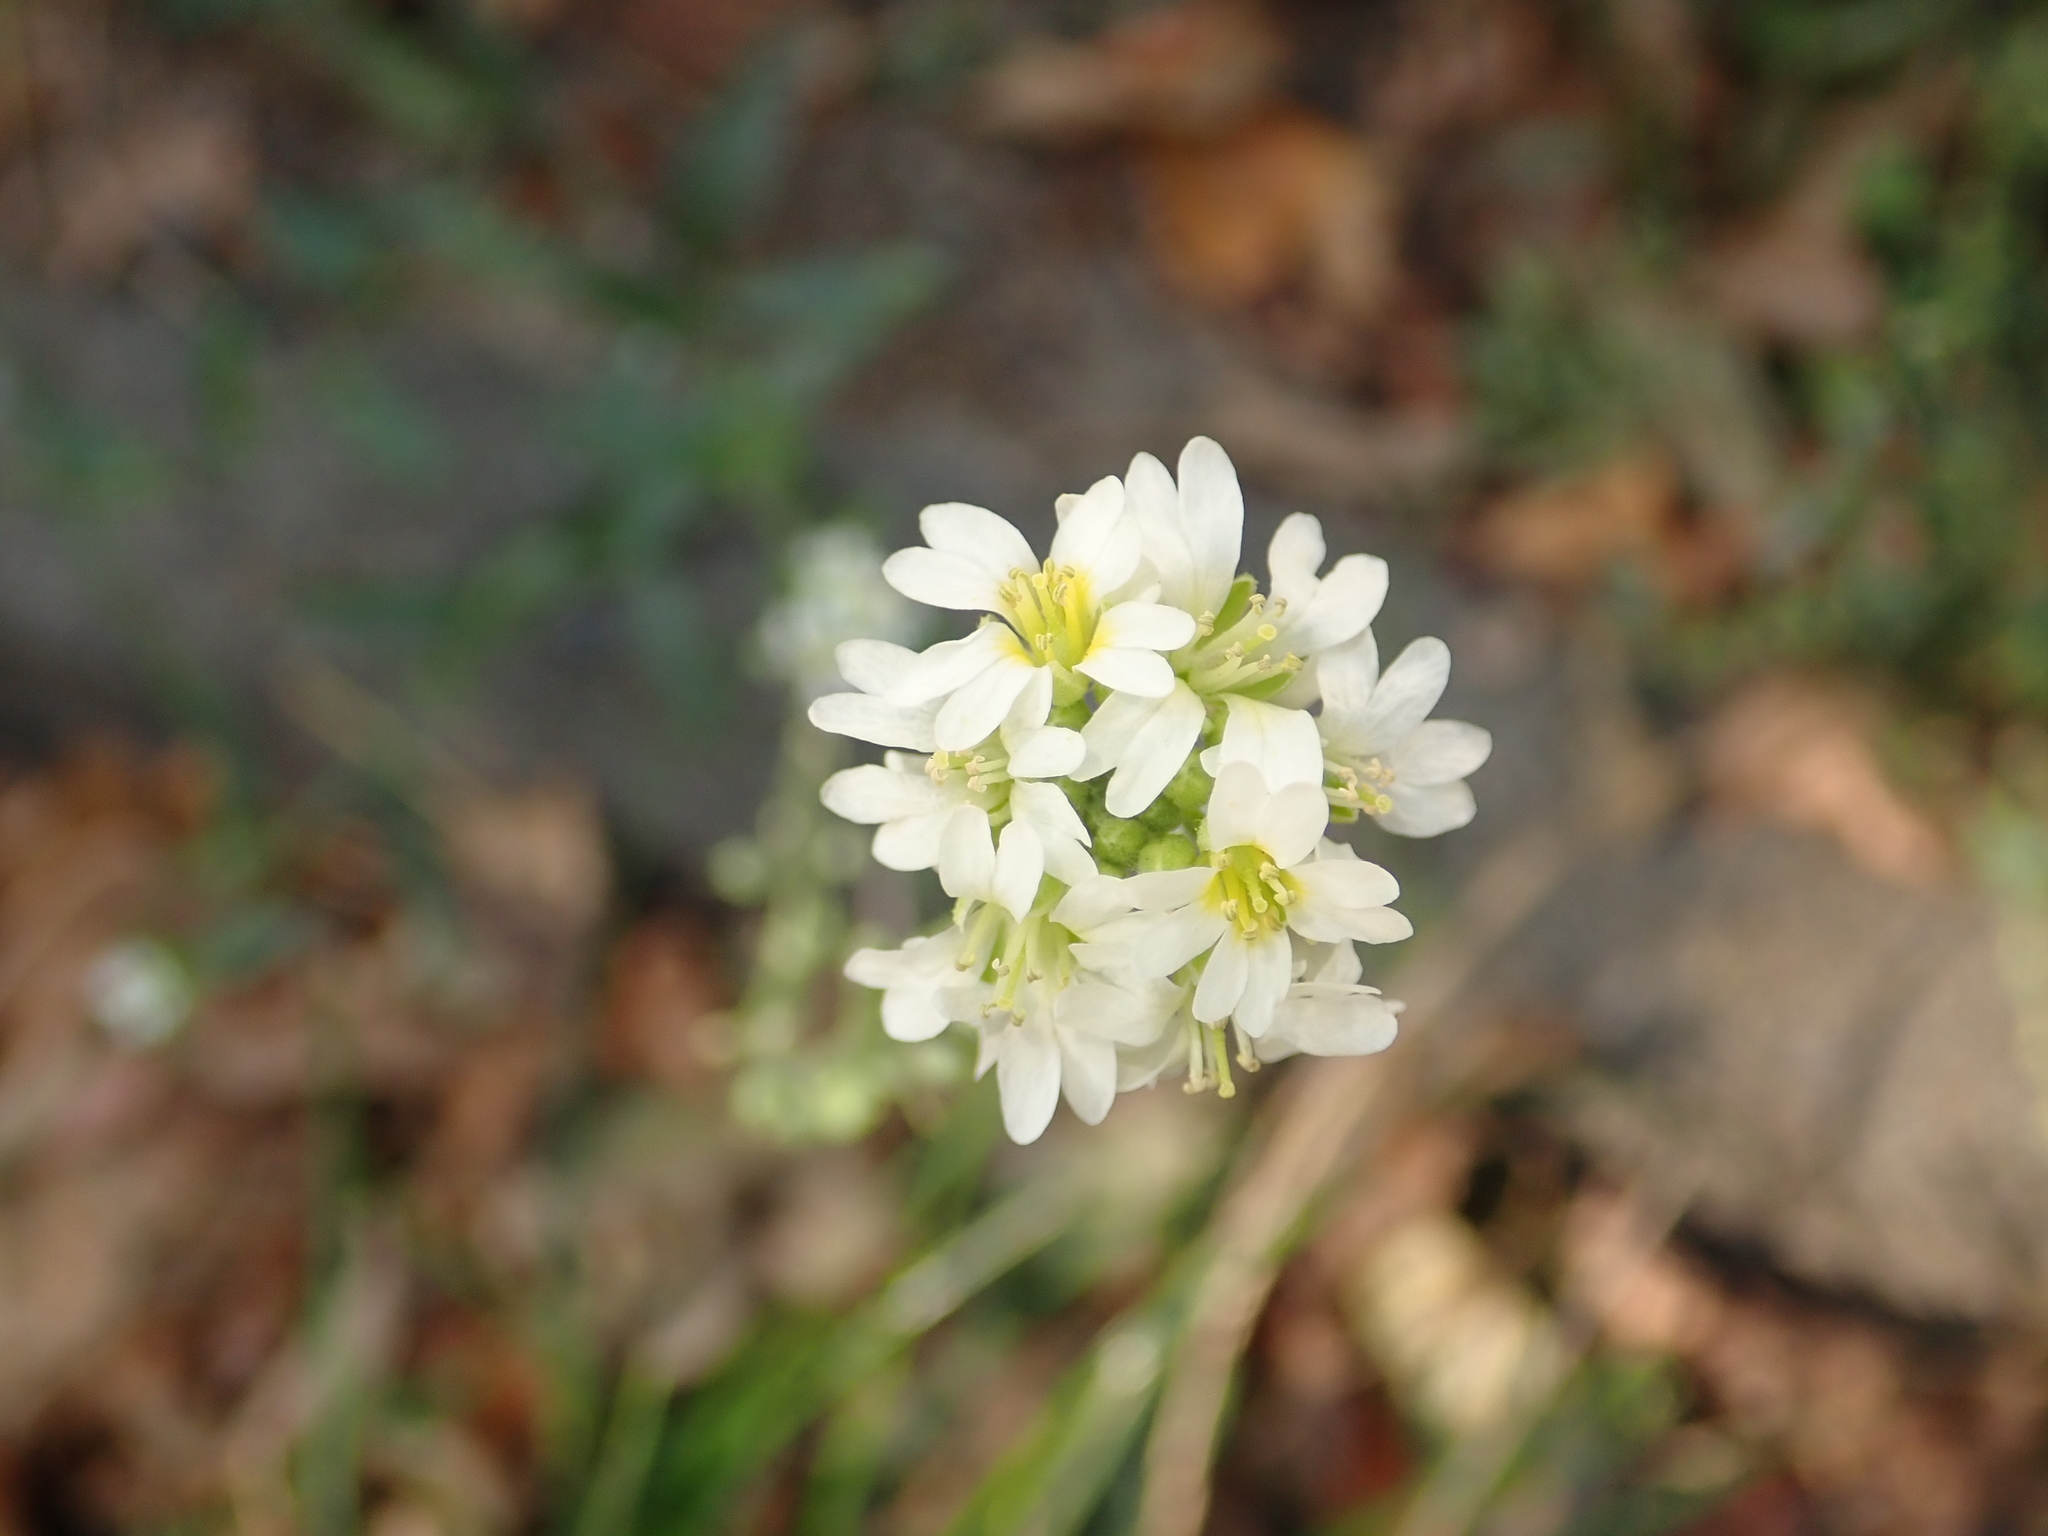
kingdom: Plantae
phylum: Tracheophyta
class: Magnoliopsida
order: Brassicales
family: Brassicaceae
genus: Berteroa
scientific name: Berteroa incana
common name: Hoary alison
